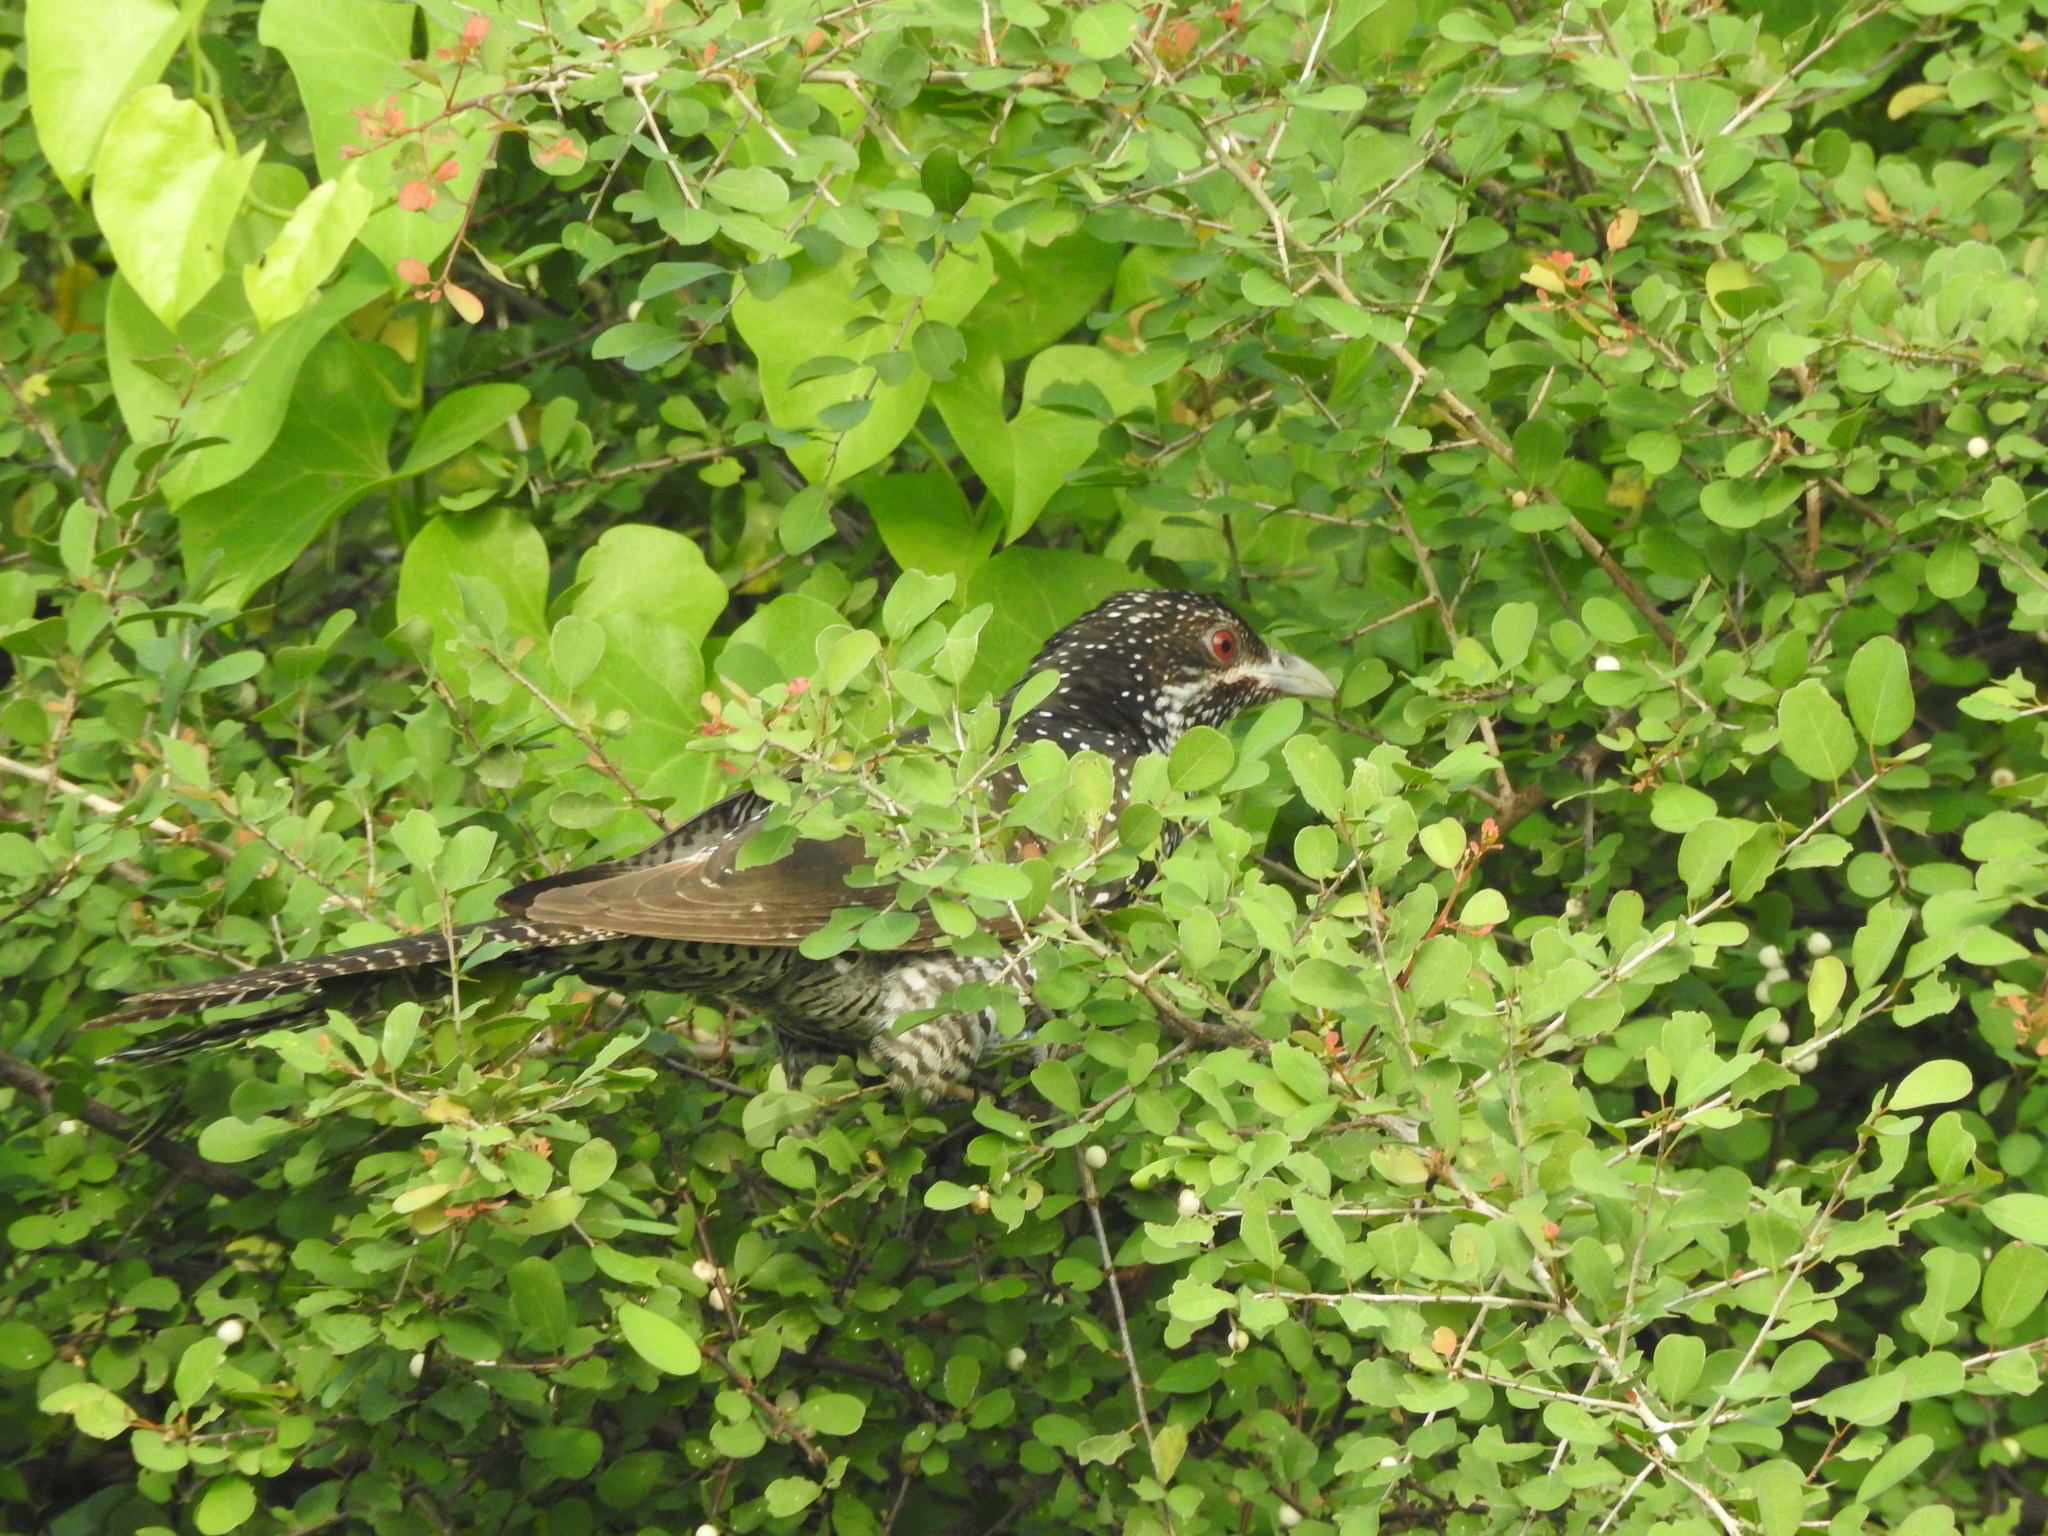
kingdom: Animalia
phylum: Chordata
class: Aves
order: Cuculiformes
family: Cuculidae
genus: Eudynamys
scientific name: Eudynamys scolopaceus
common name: Asian koel
